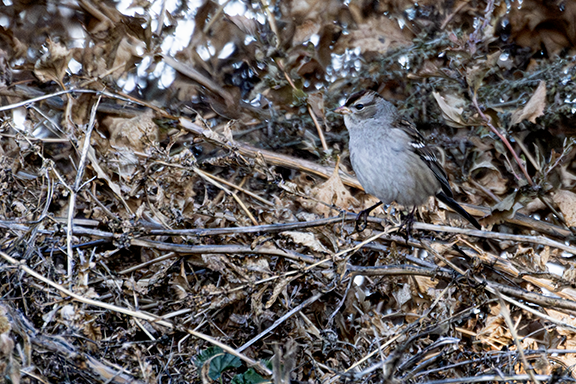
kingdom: Animalia
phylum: Chordata
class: Aves
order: Passeriformes
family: Passerellidae
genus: Zonotrichia
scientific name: Zonotrichia leucophrys
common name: White-crowned sparrow
